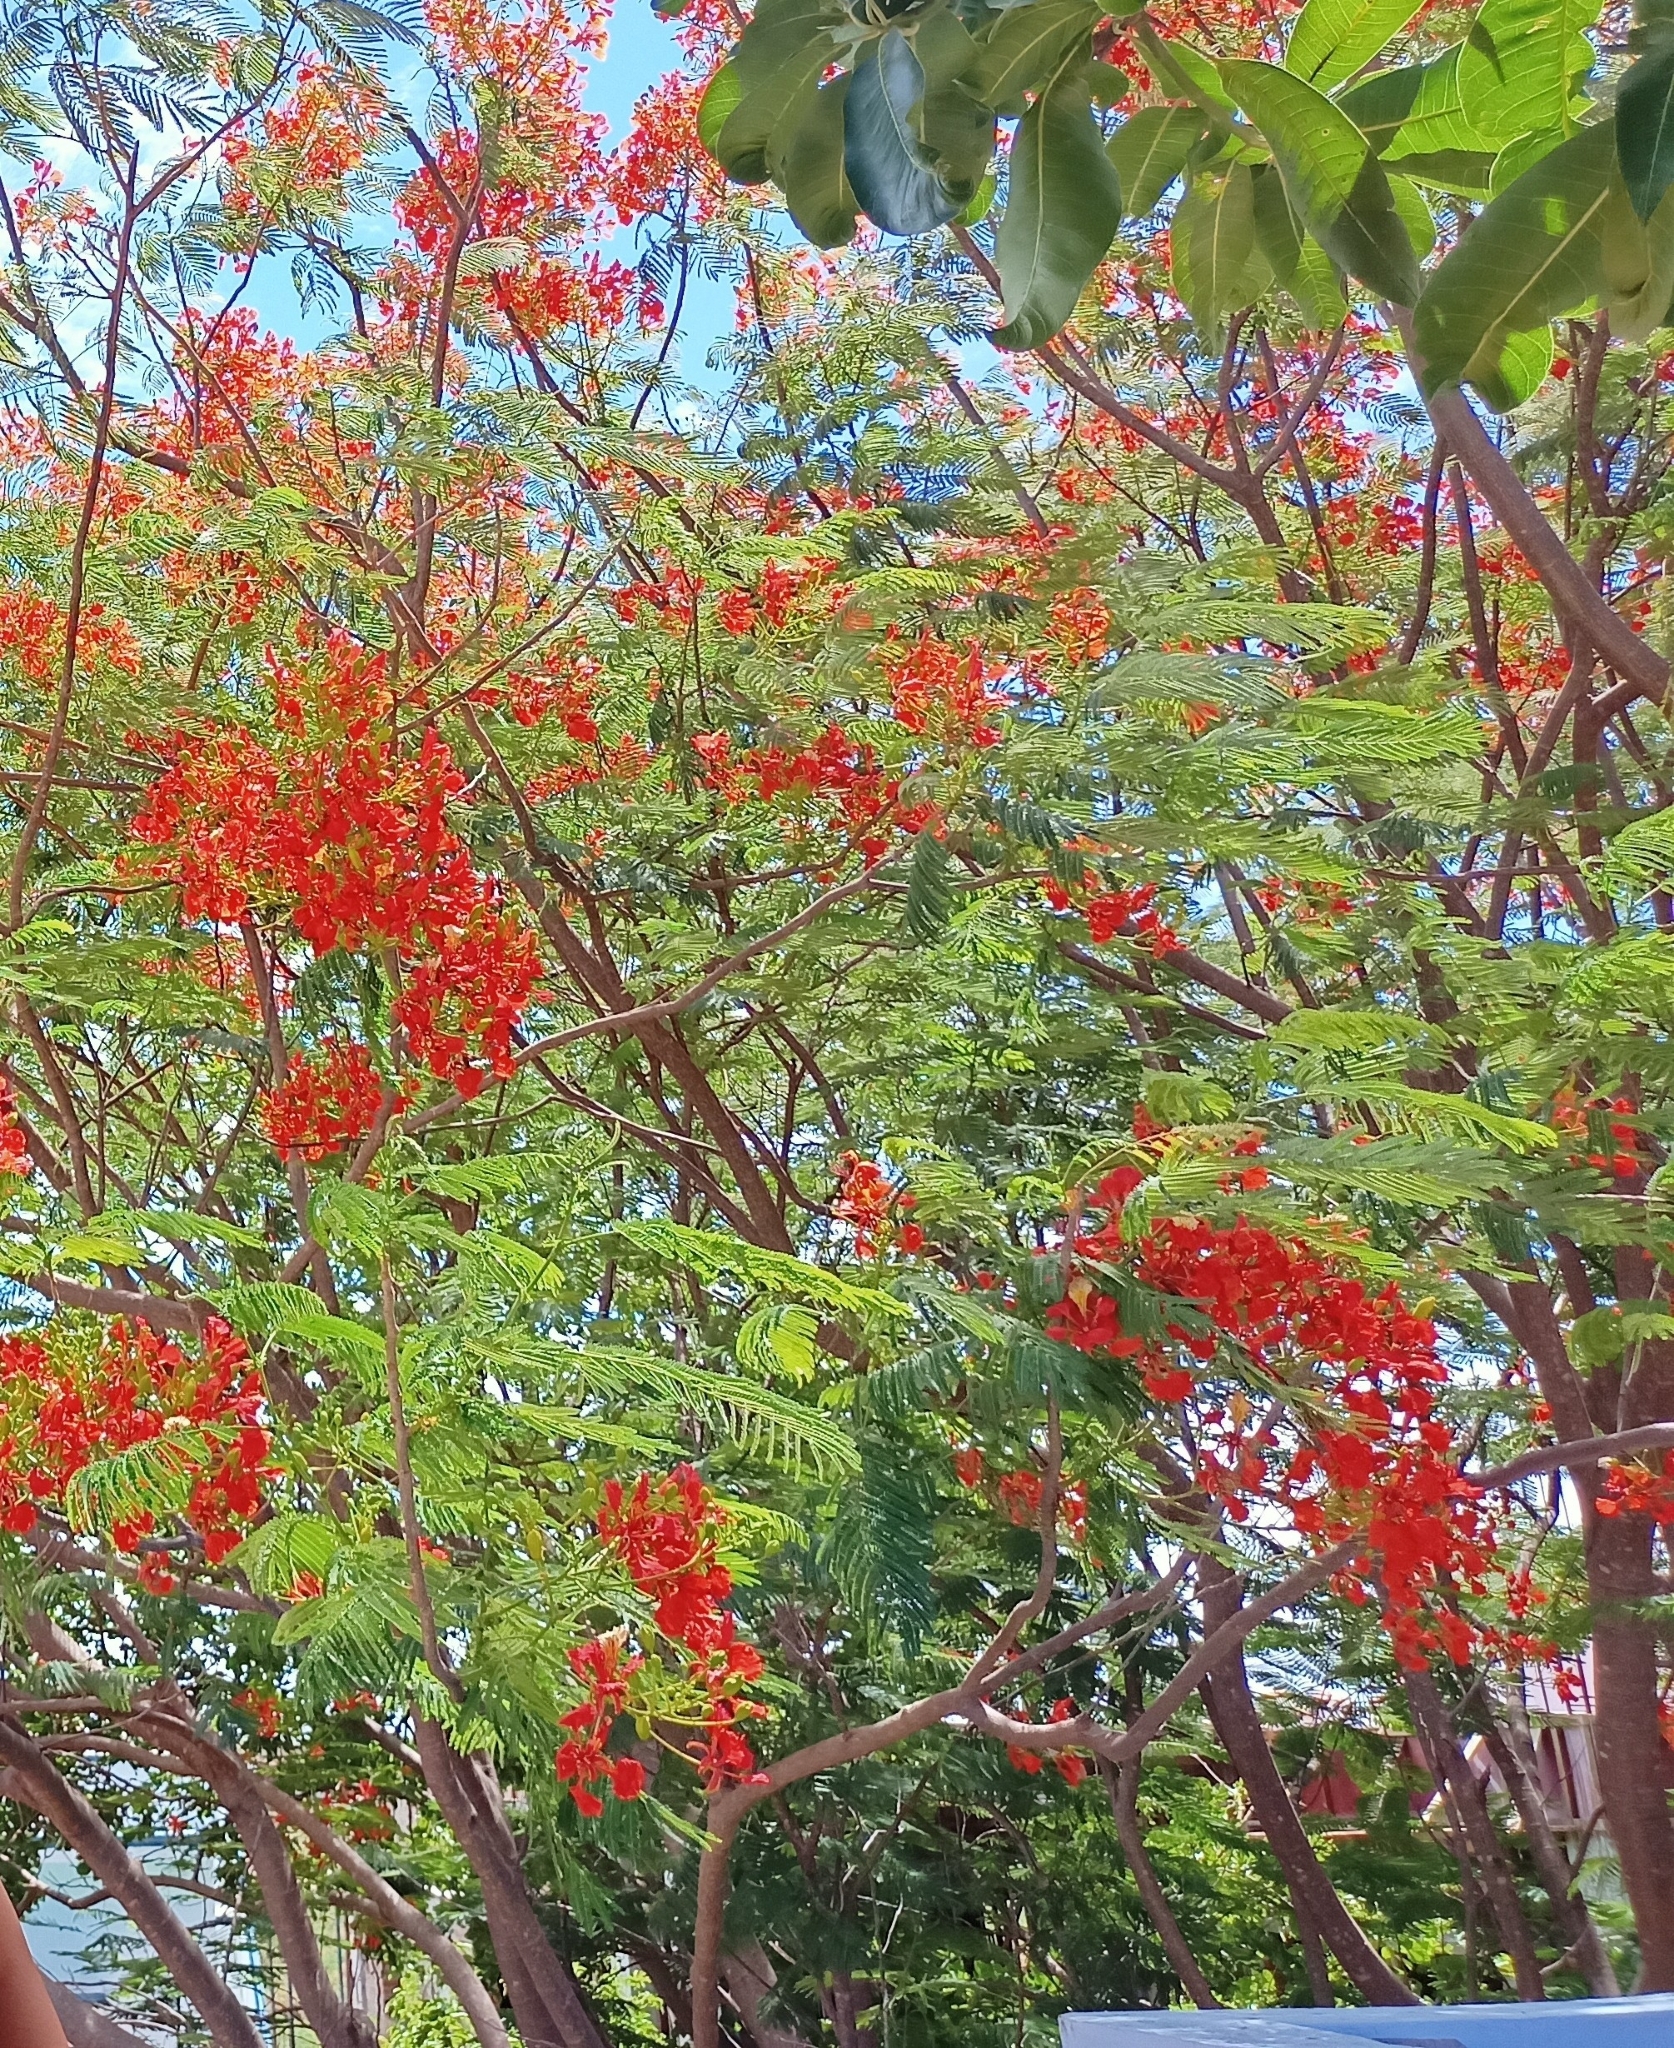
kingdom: Plantae
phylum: Tracheophyta
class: Magnoliopsida
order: Fabales
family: Fabaceae
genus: Delonix
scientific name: Delonix regia
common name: Royal poinciana
